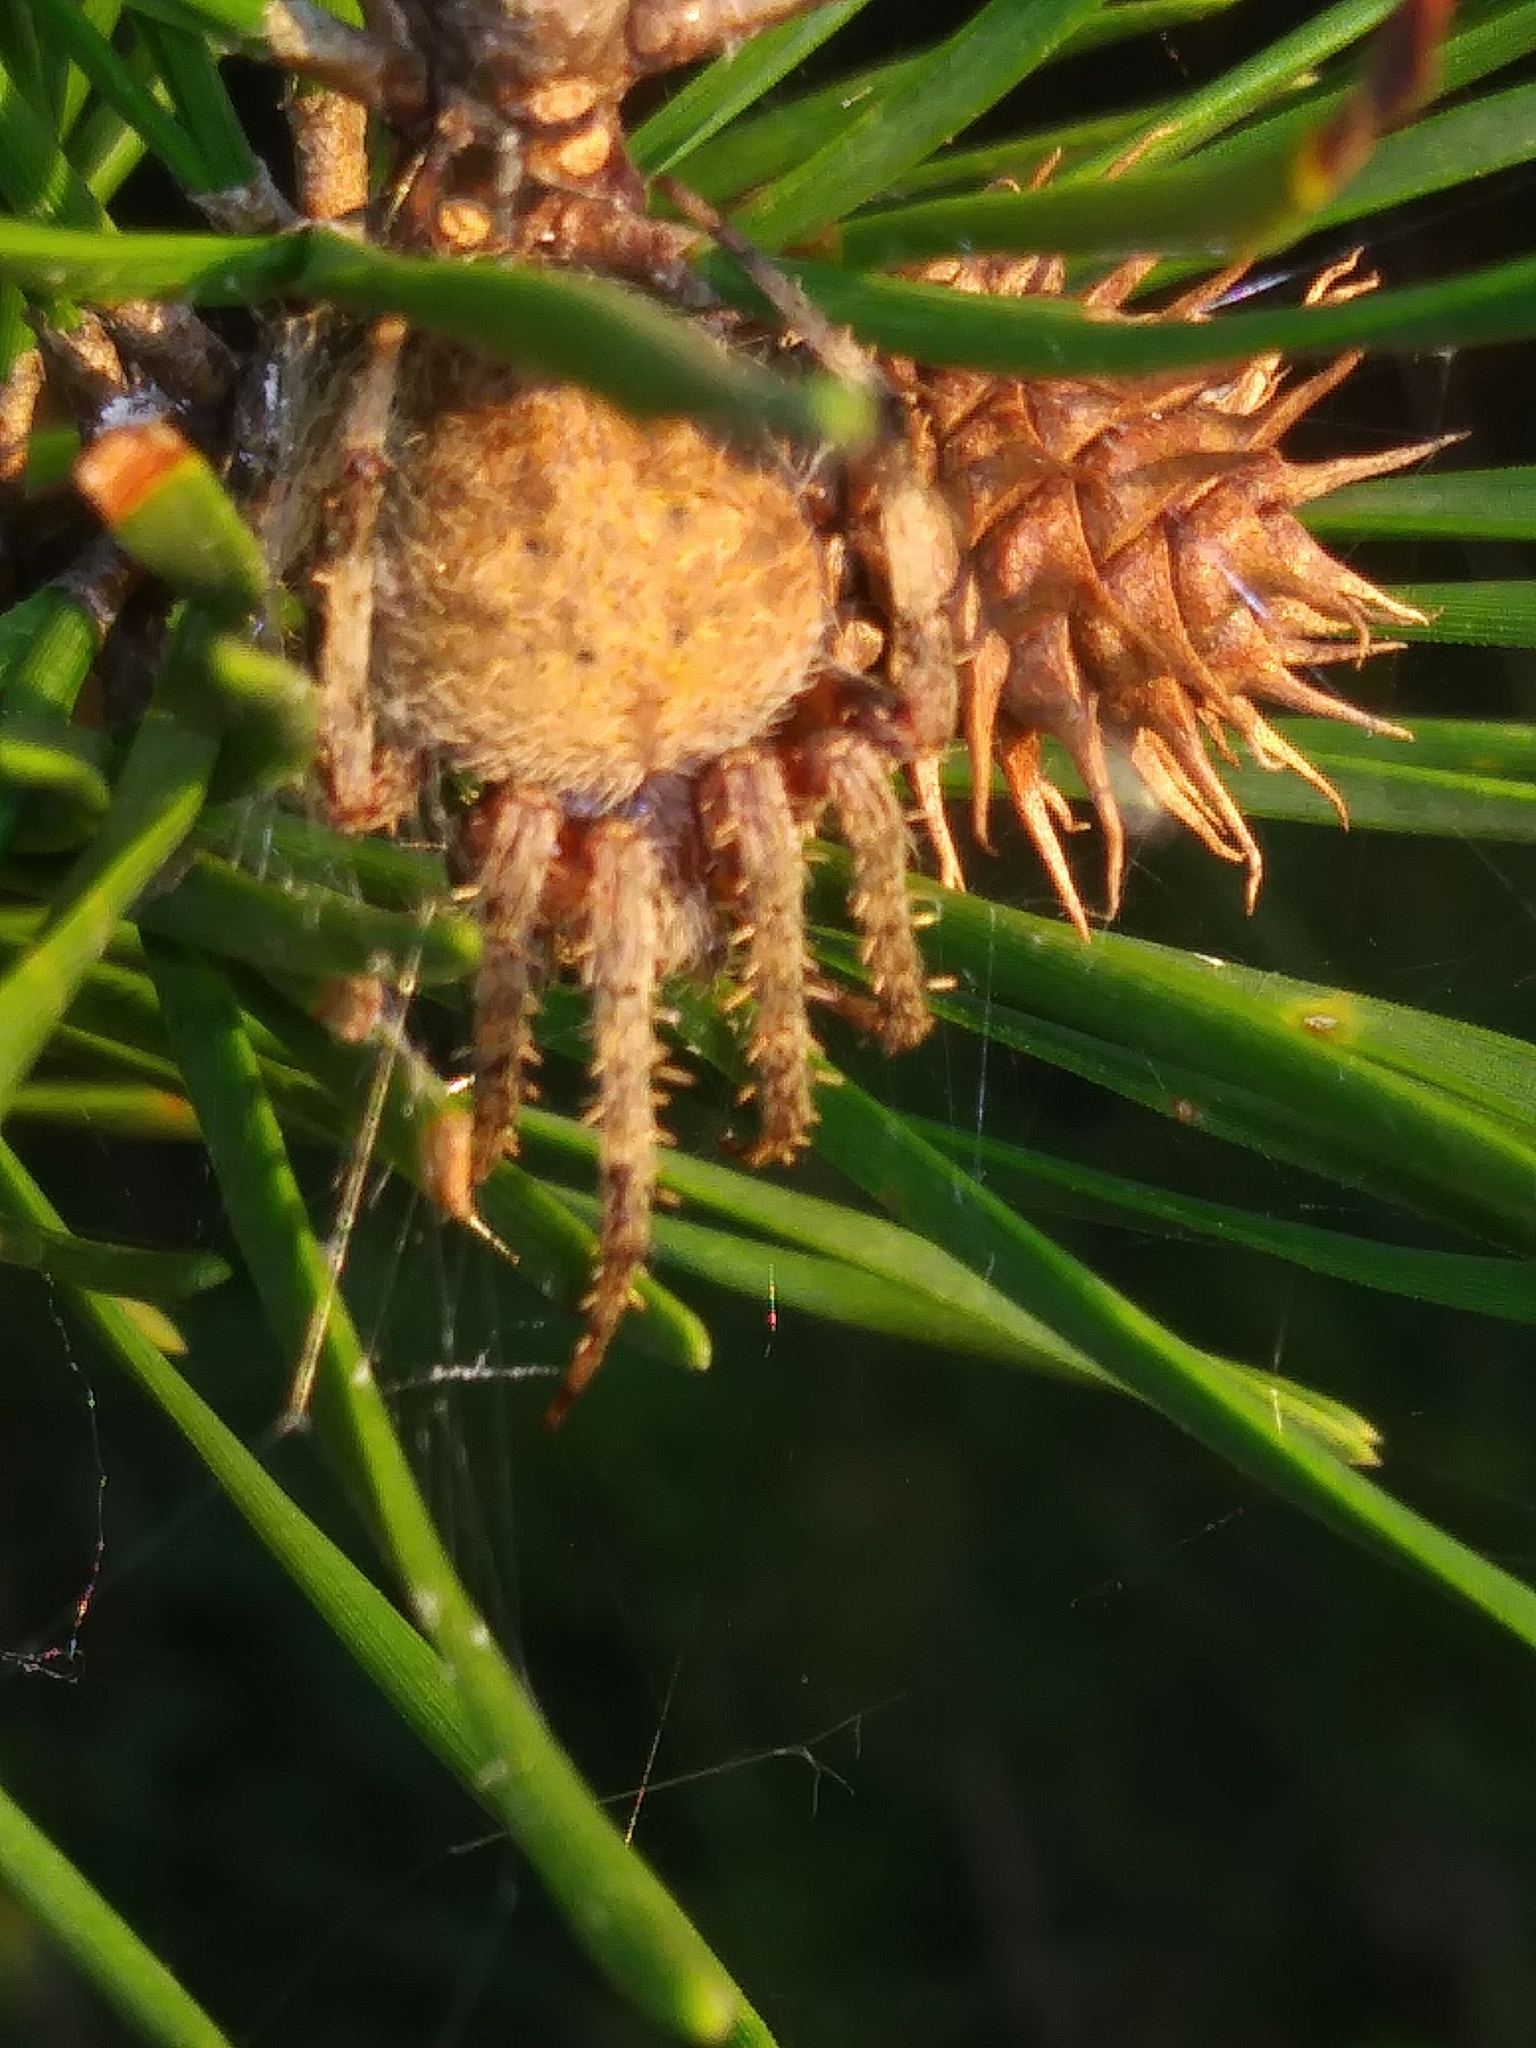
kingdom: Animalia
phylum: Arthropoda
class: Arachnida
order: Araneae
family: Araneidae
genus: Neoscona
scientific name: Neoscona crucifera
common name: Spotted orbweaver
